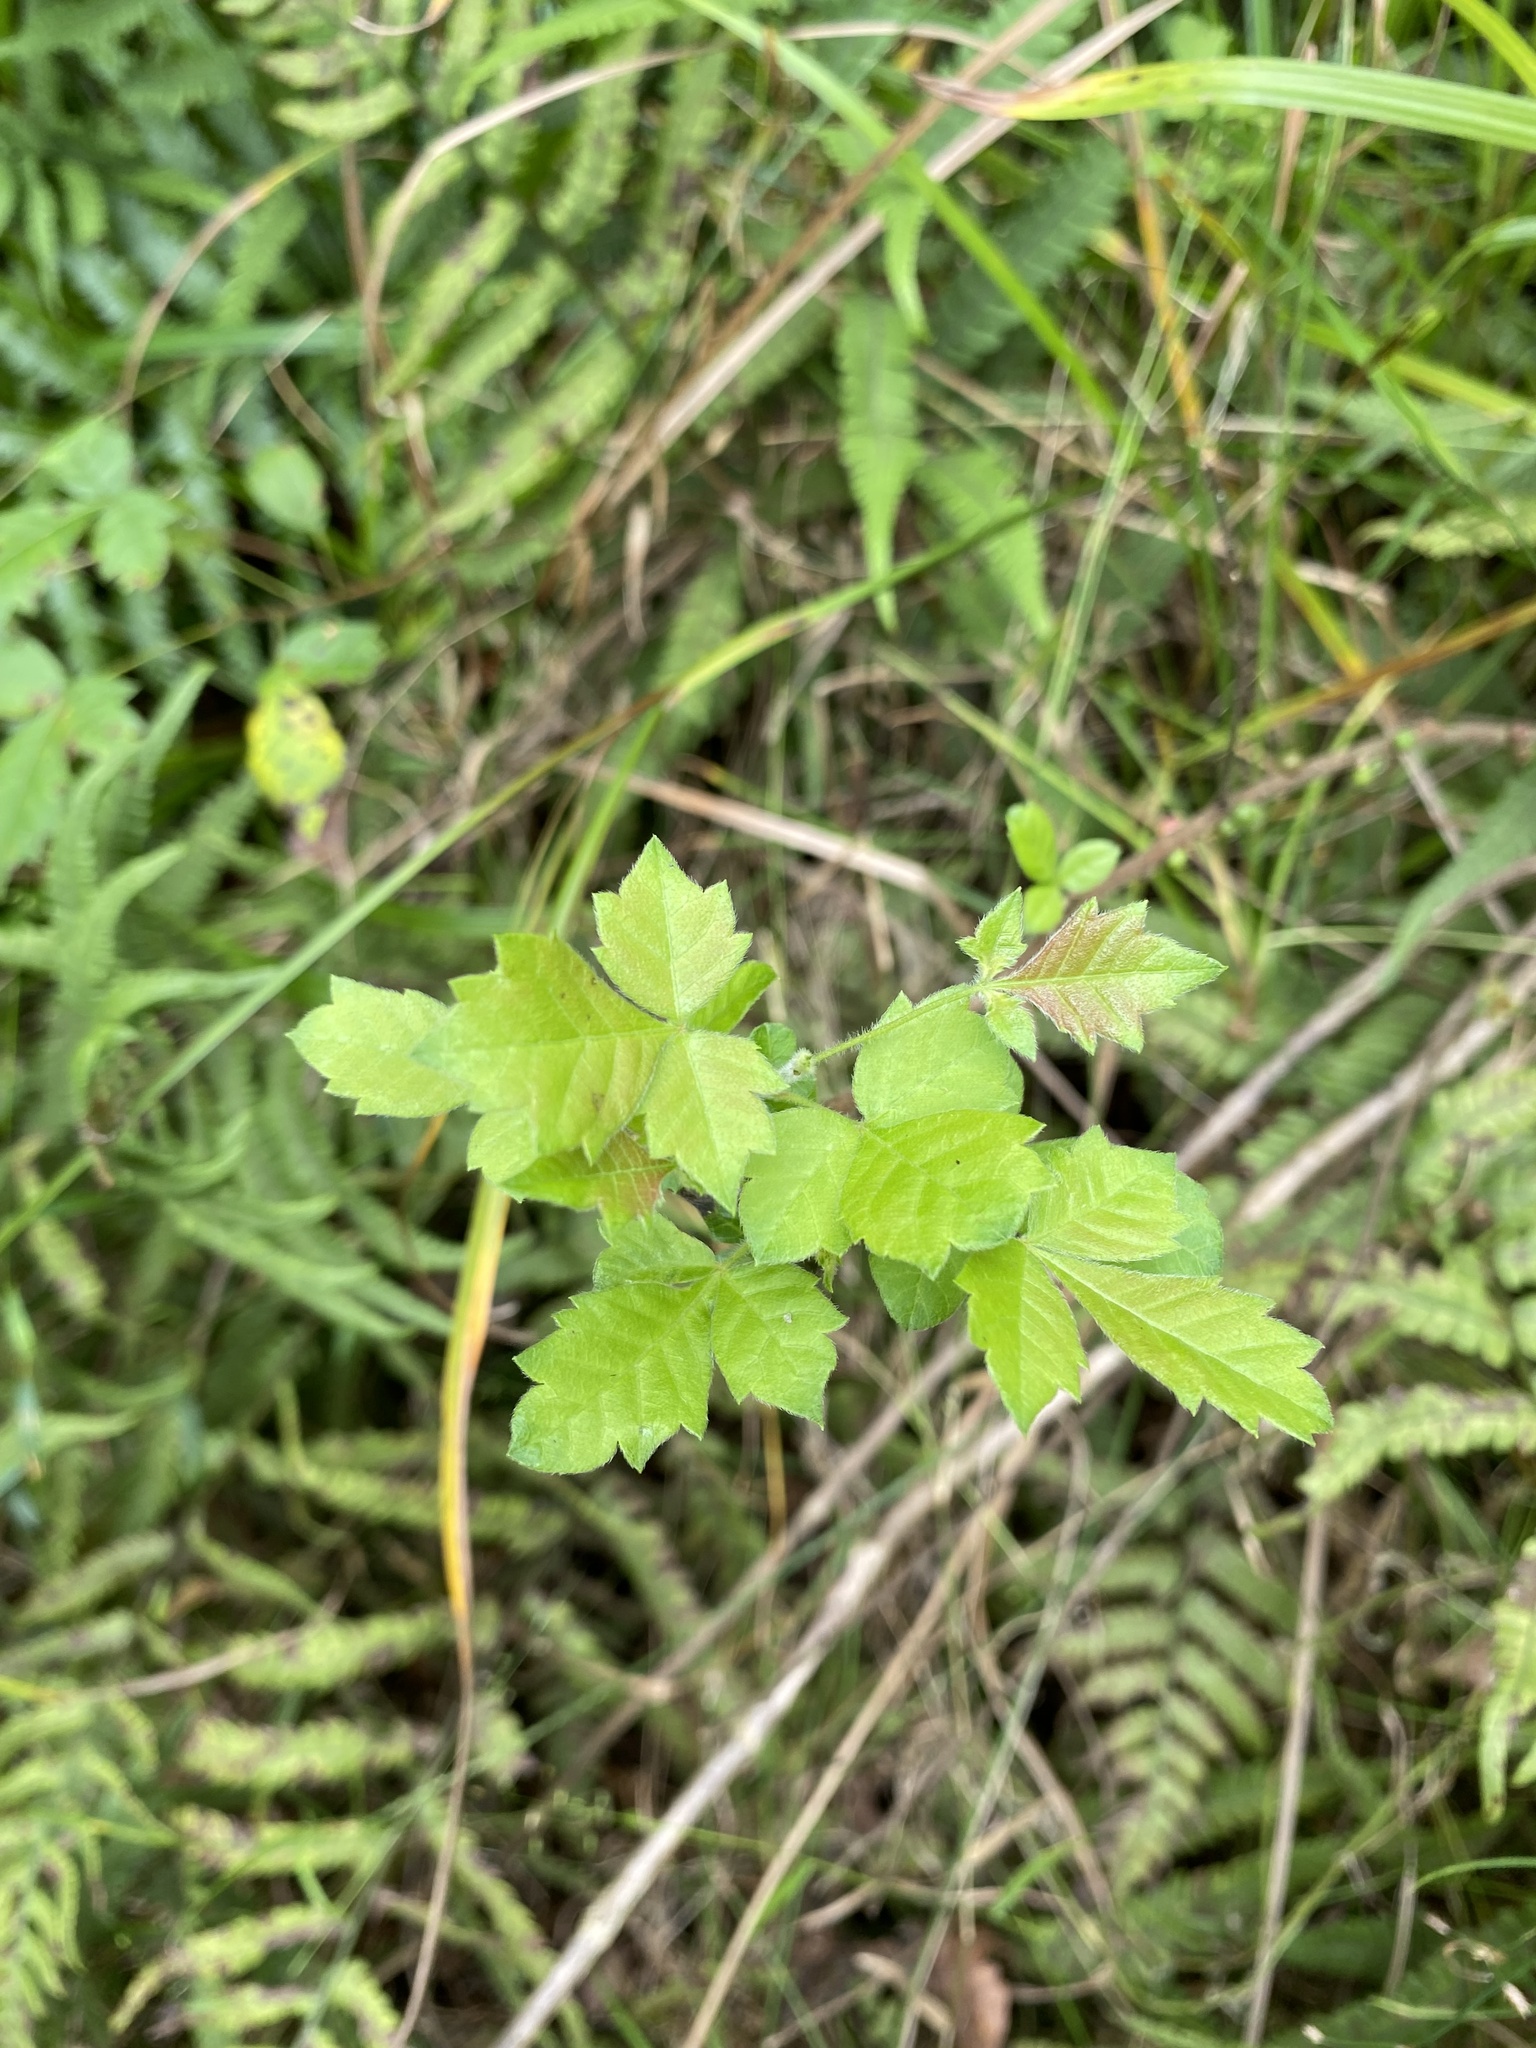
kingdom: Plantae
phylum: Tracheophyta
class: Magnoliopsida
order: Sapindales
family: Anacardiaceae
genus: Searsia
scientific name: Searsia dentata
